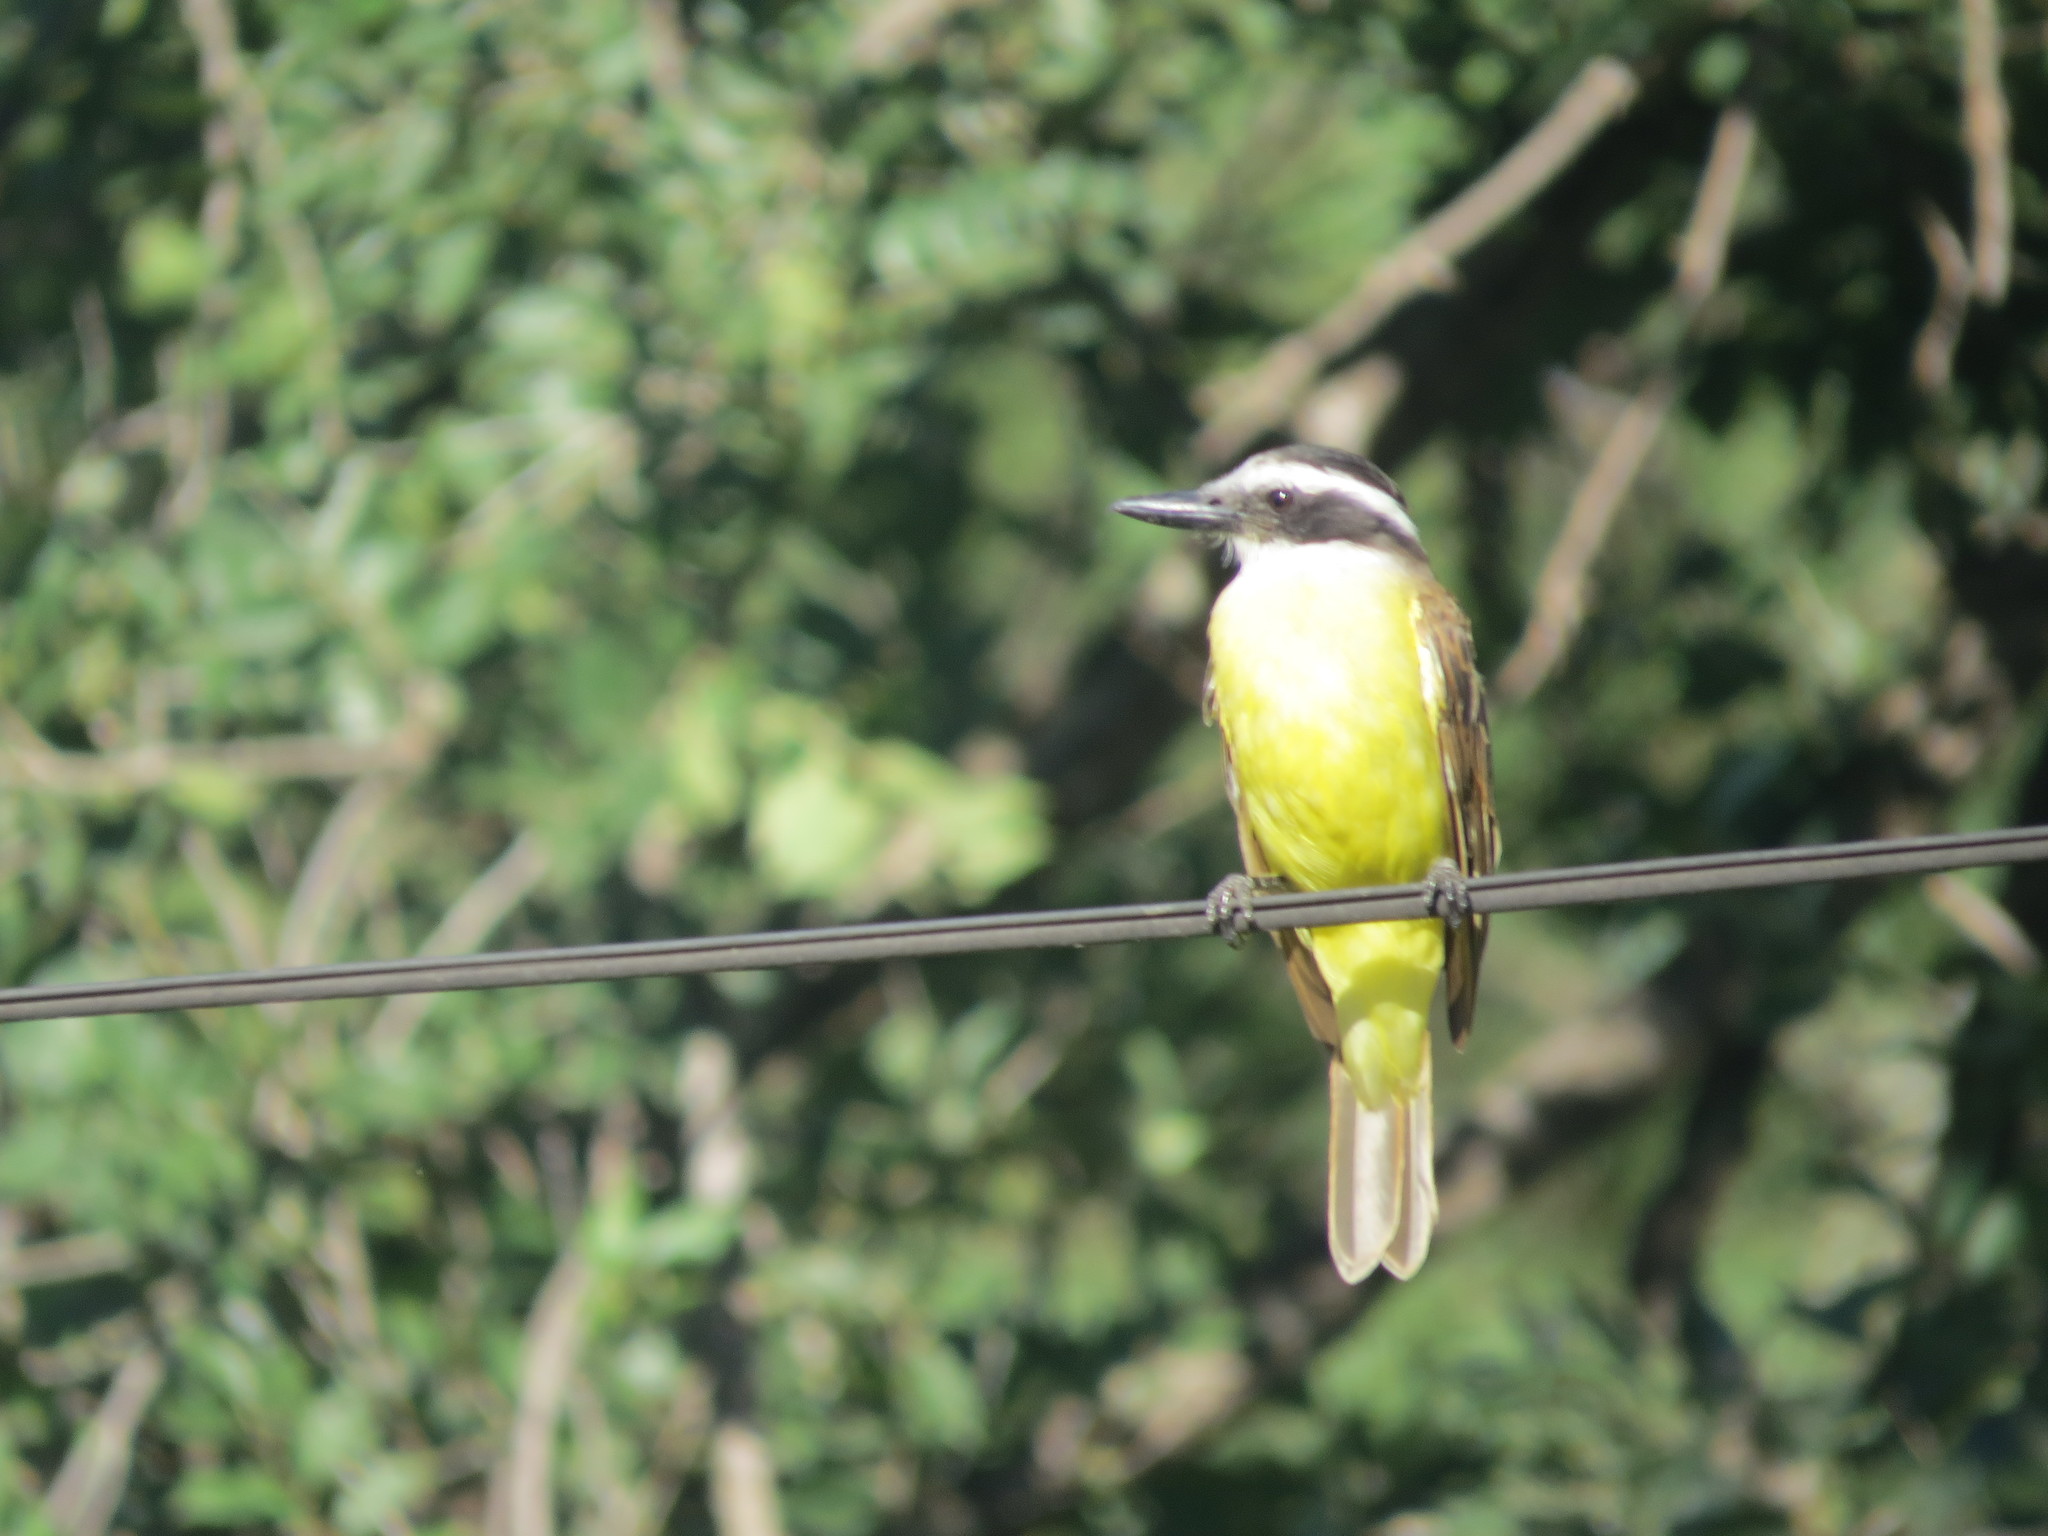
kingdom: Animalia
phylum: Chordata
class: Aves
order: Passeriformes
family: Tyrannidae
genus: Pitangus
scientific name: Pitangus sulphuratus
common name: Great kiskadee
